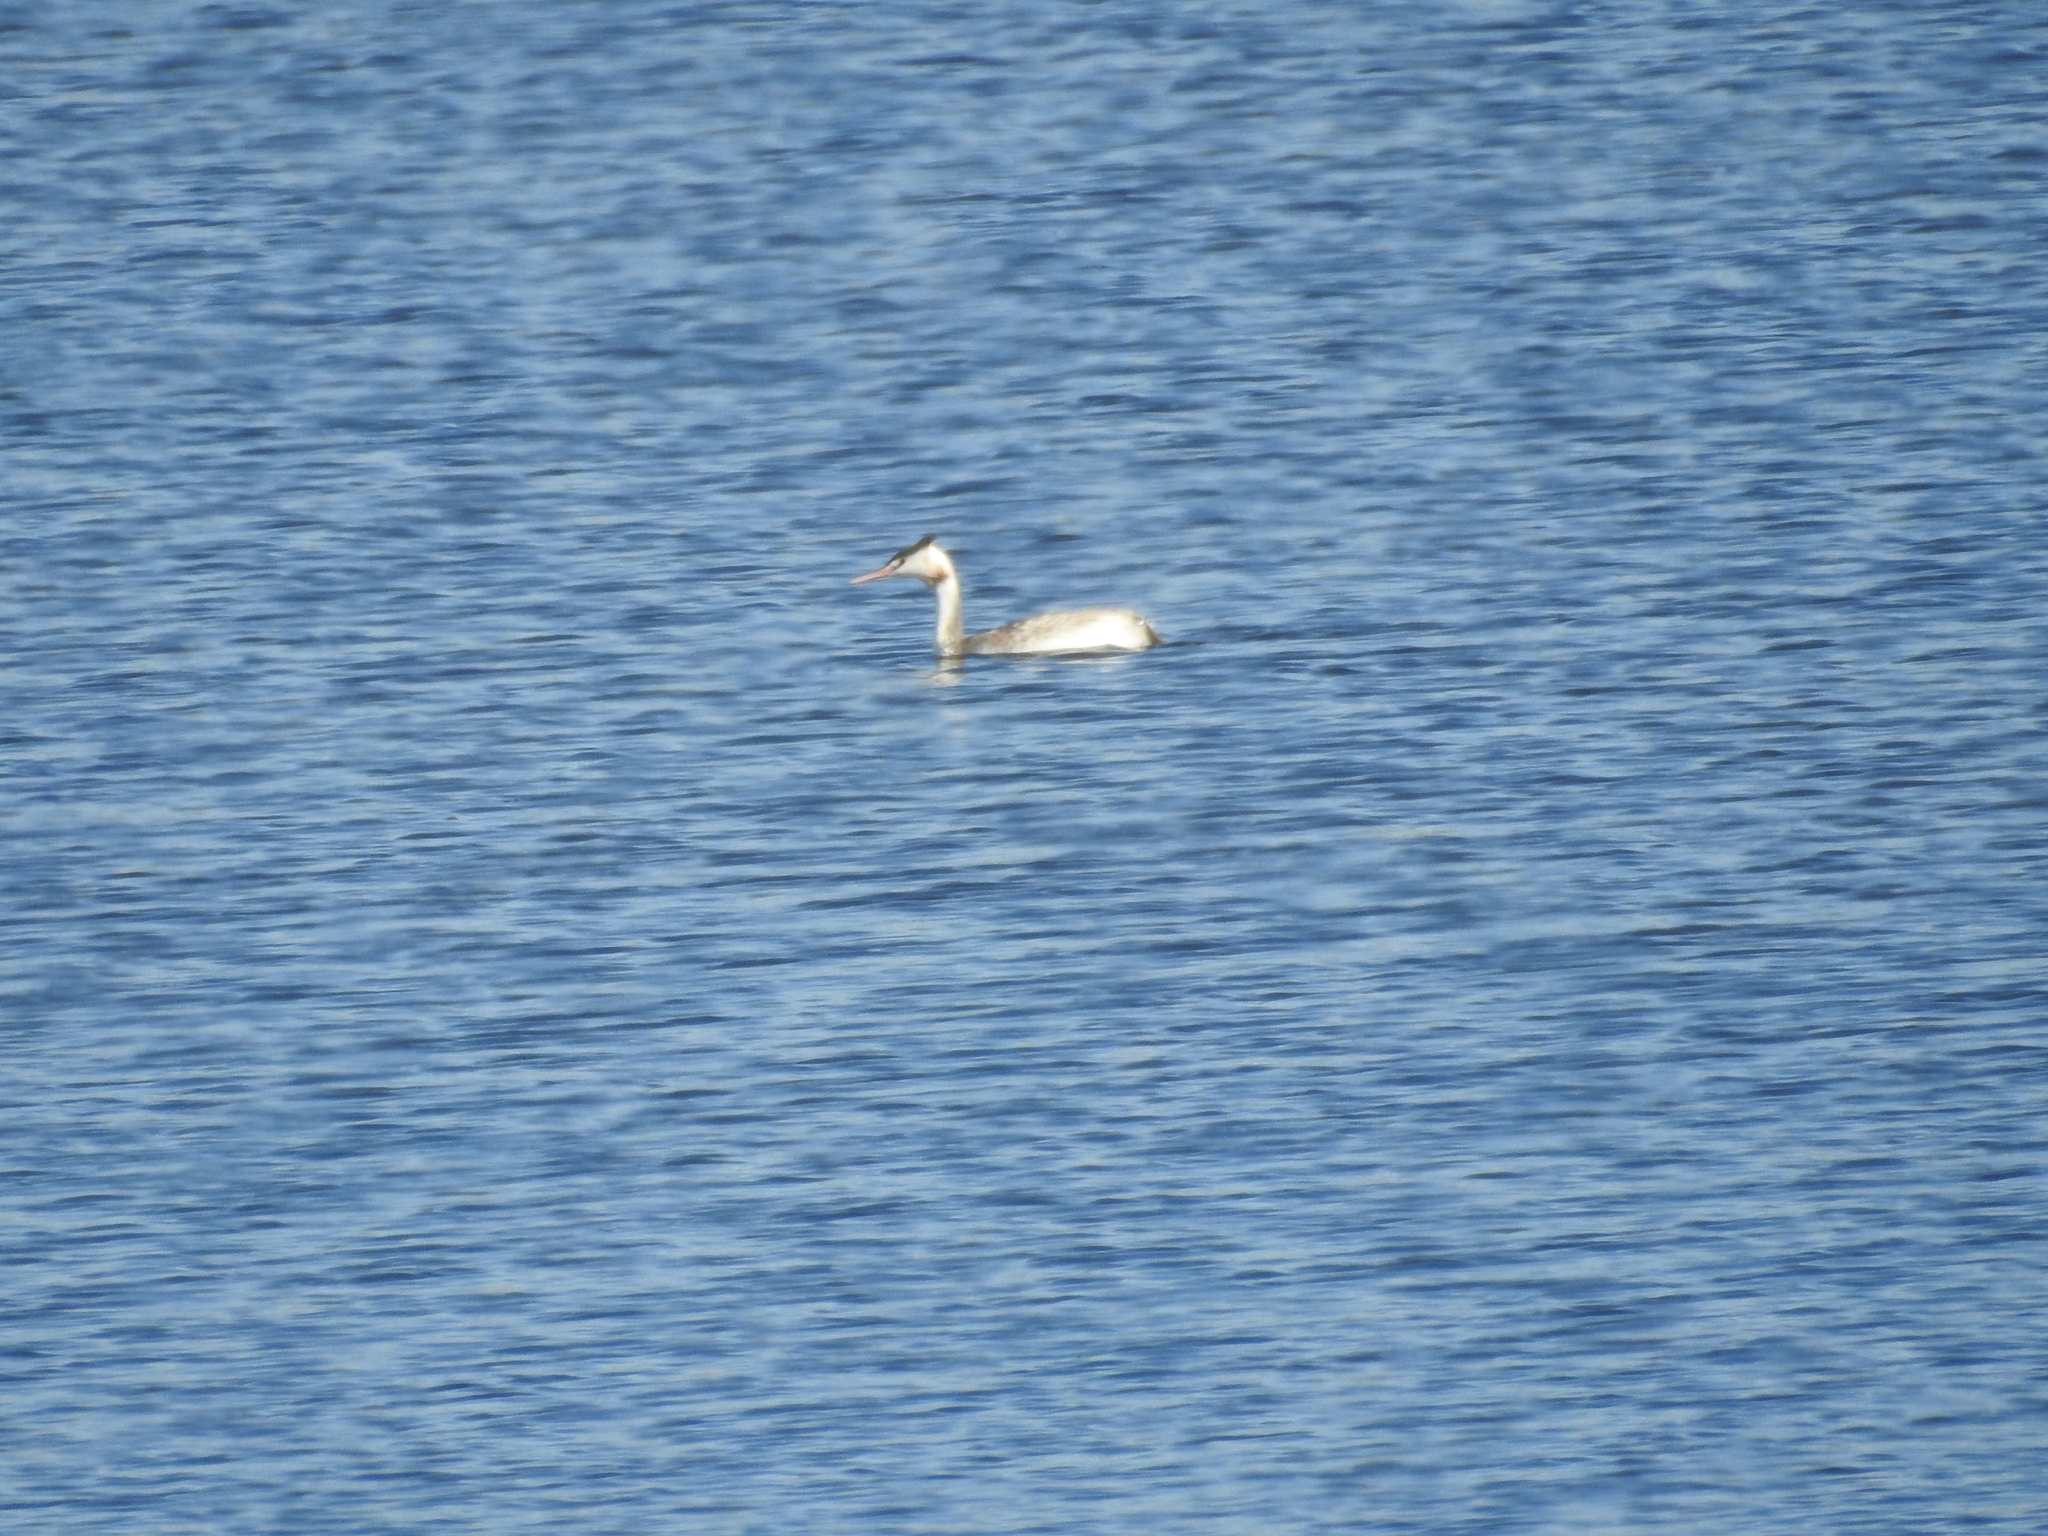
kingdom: Animalia
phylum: Chordata
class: Aves
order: Podicipediformes
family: Podicipedidae
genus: Podiceps
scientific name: Podiceps cristatus
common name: Great crested grebe
